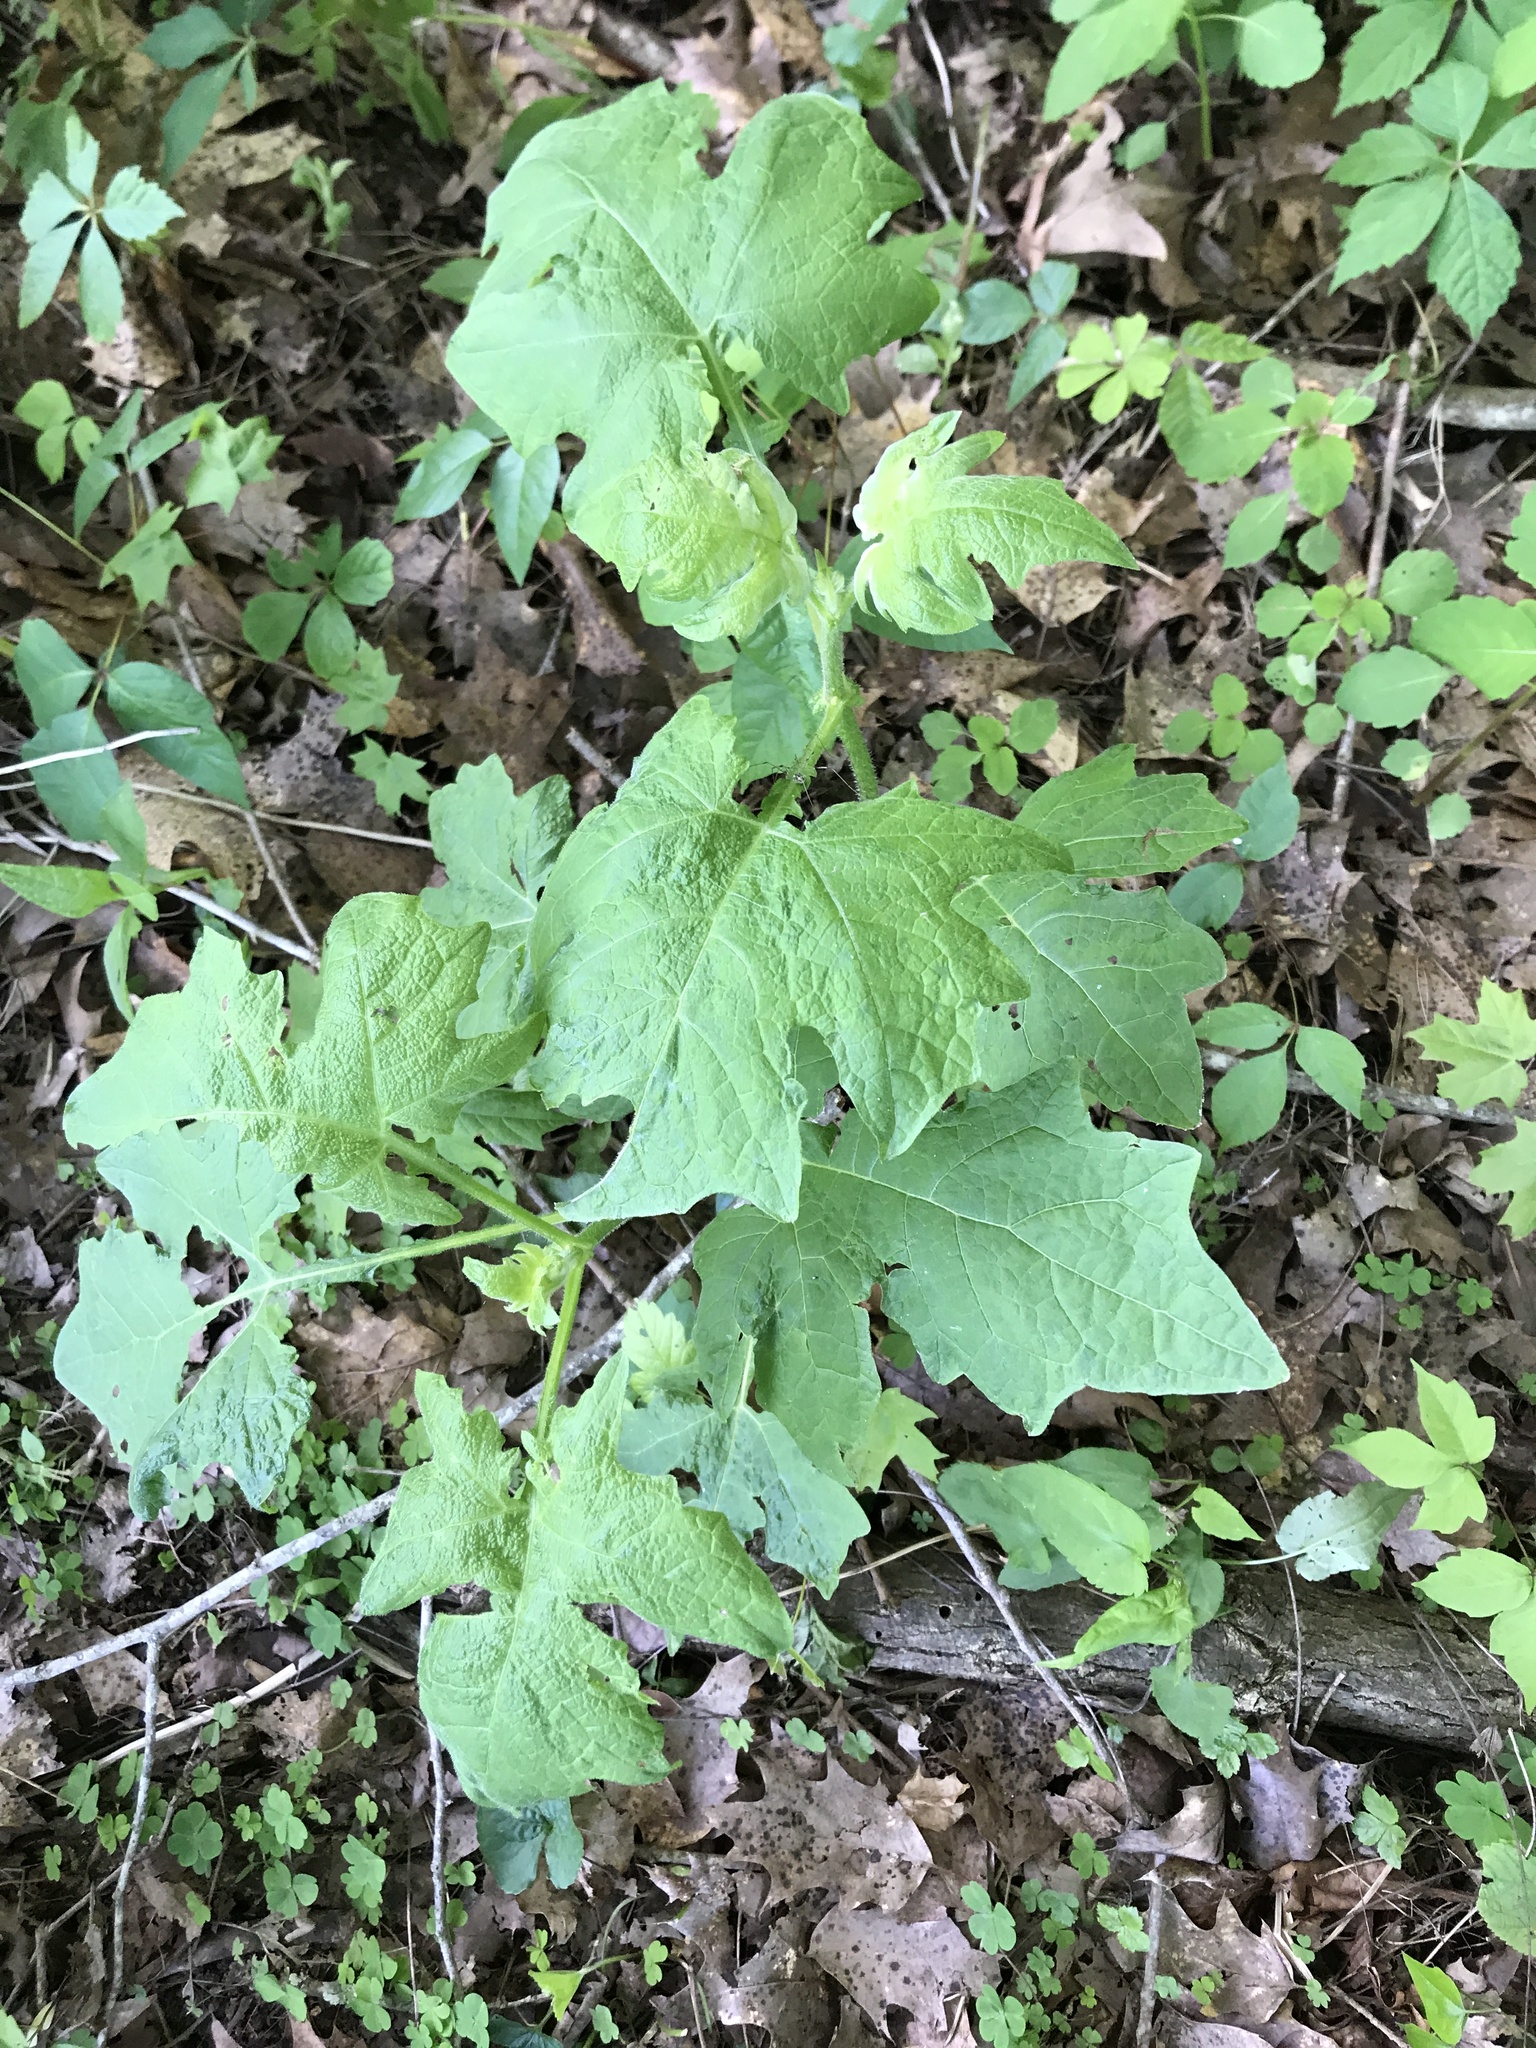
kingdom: Plantae
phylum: Tracheophyta
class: Magnoliopsida
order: Asterales
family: Asteraceae
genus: Polymnia
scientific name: Polymnia canadensis
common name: Pale-flowered leafcup
